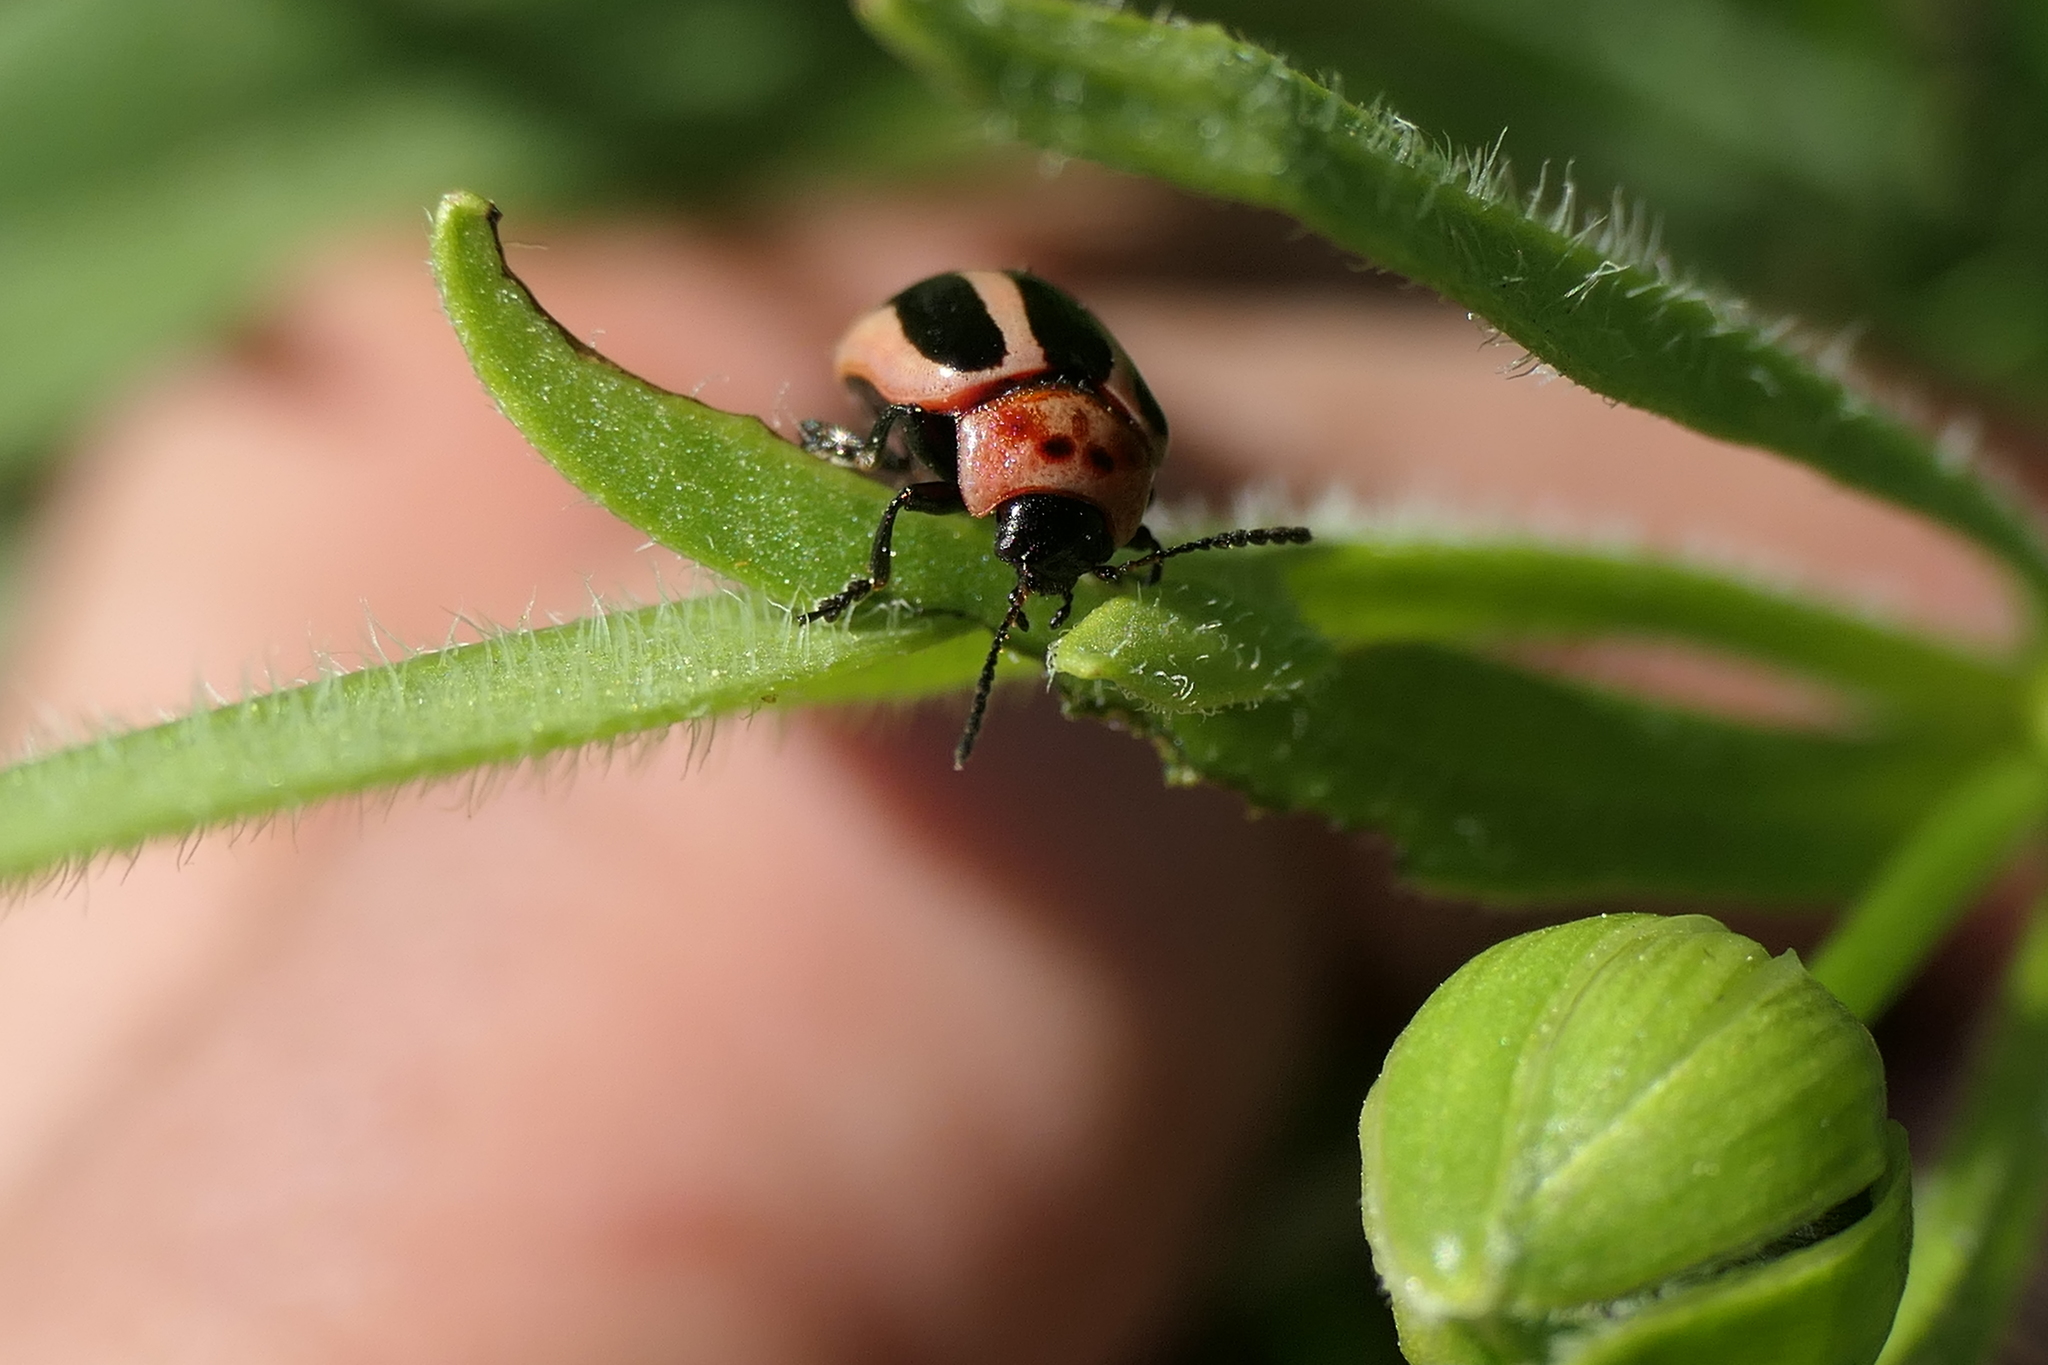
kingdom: Animalia
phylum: Arthropoda
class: Insecta
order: Coleoptera
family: Chrysomelidae
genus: Calligrapha
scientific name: Calligrapha californica
